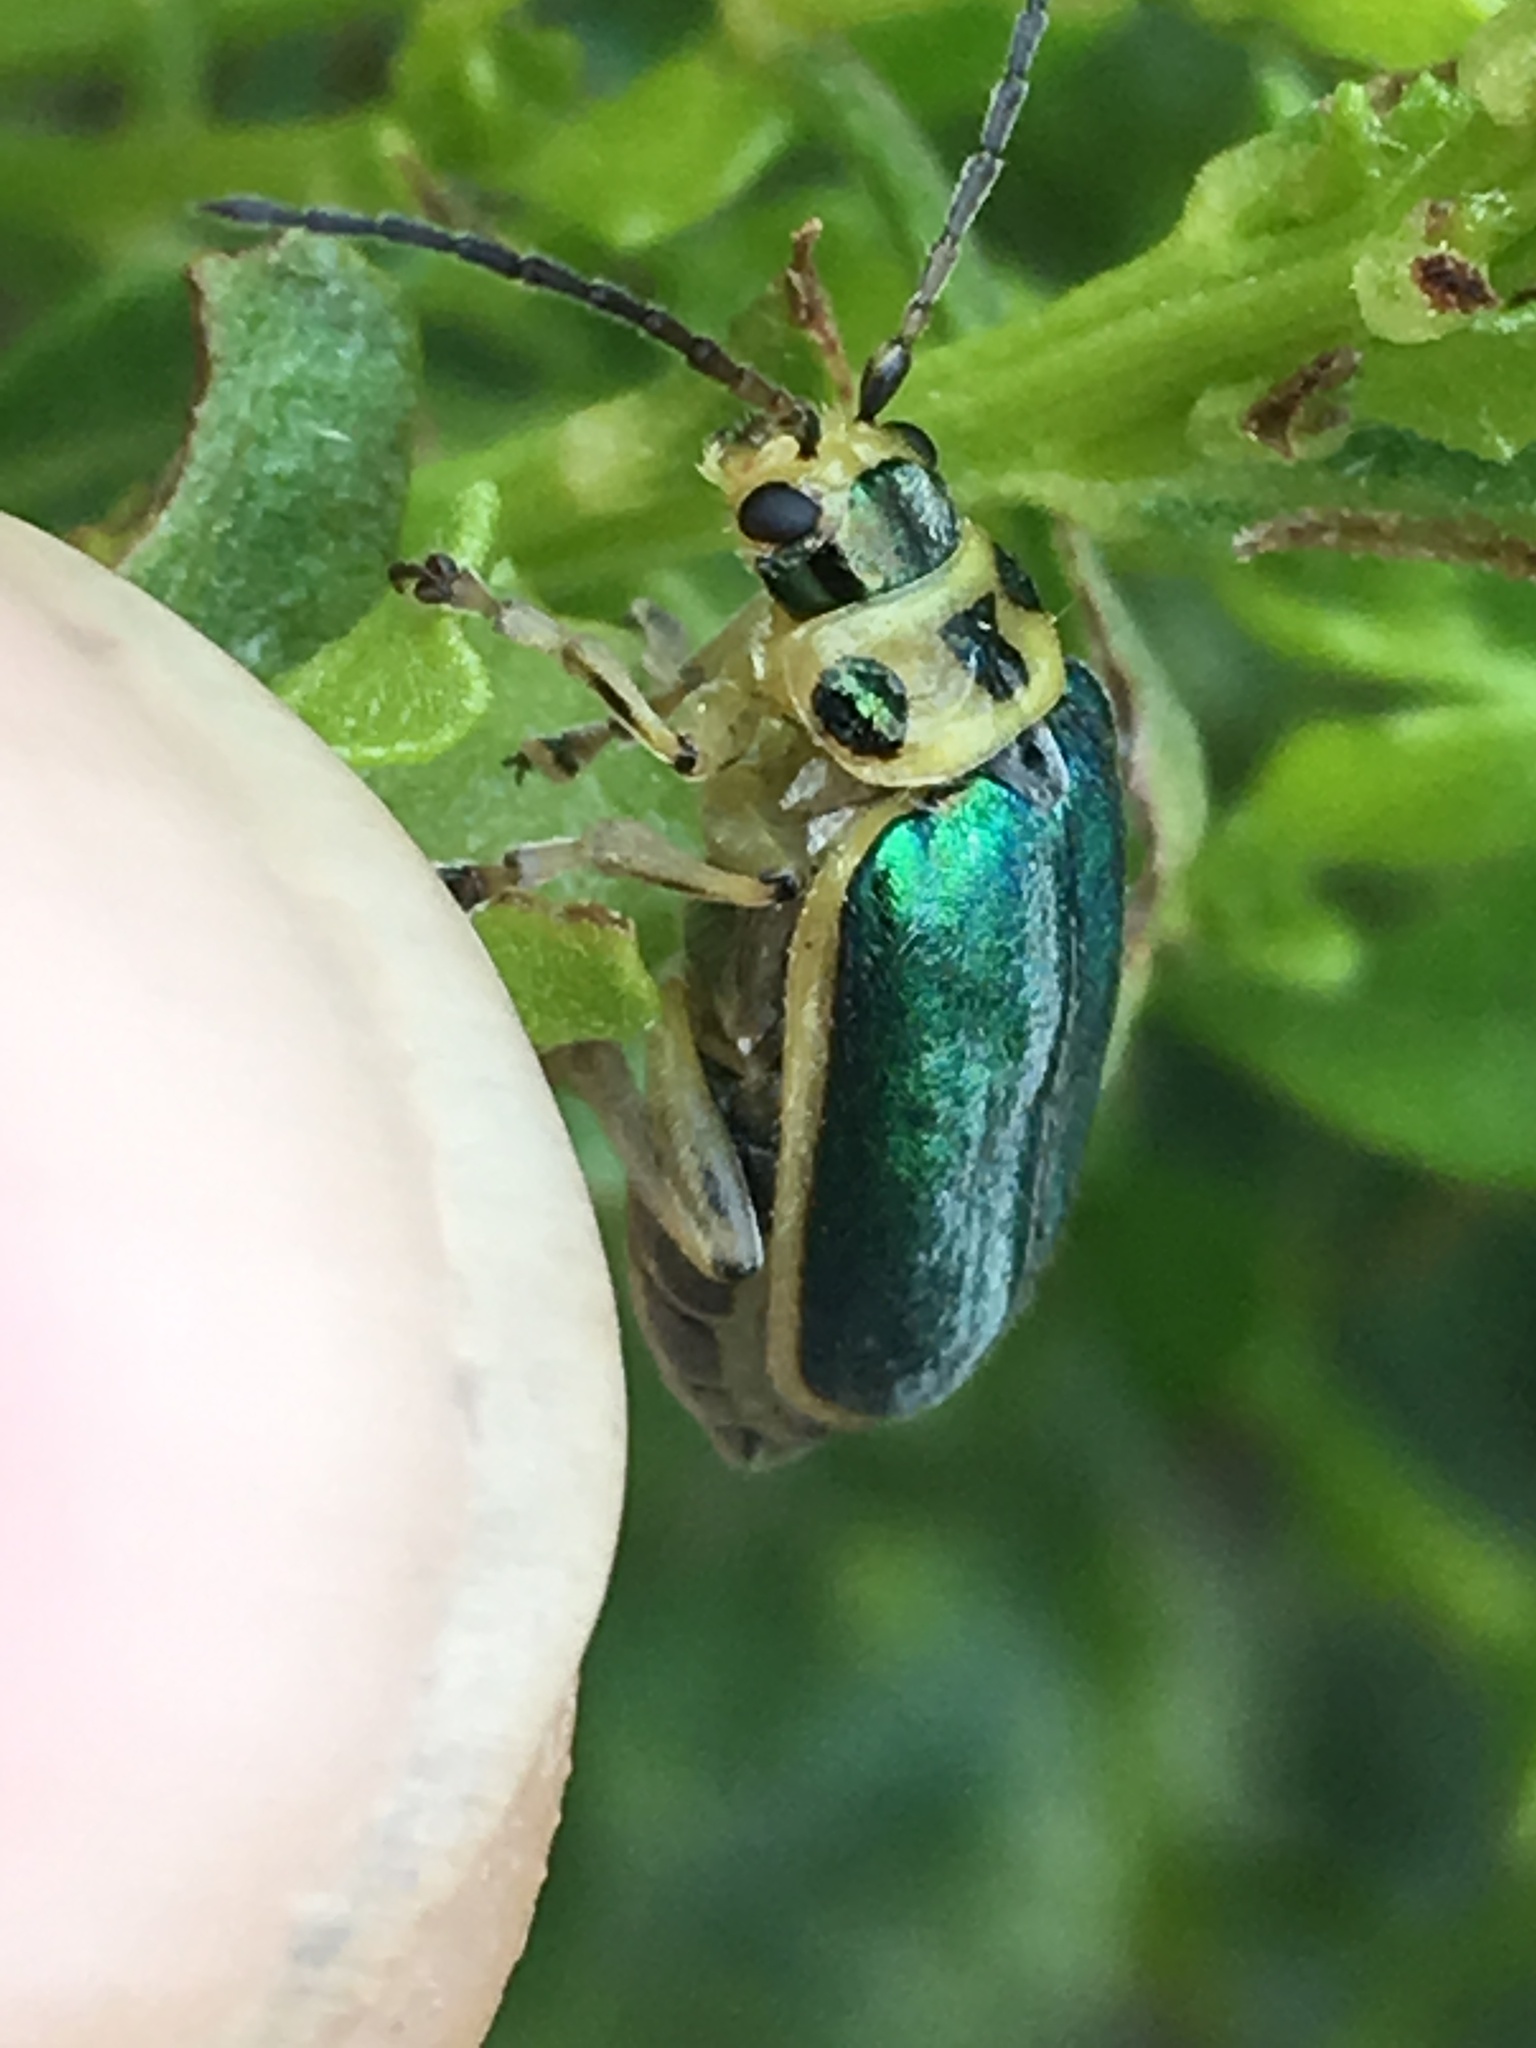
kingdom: Animalia
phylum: Arthropoda
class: Insecta
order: Coleoptera
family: Chrysomelidae
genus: Trirhabda
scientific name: Trirhabda flavolimbata
